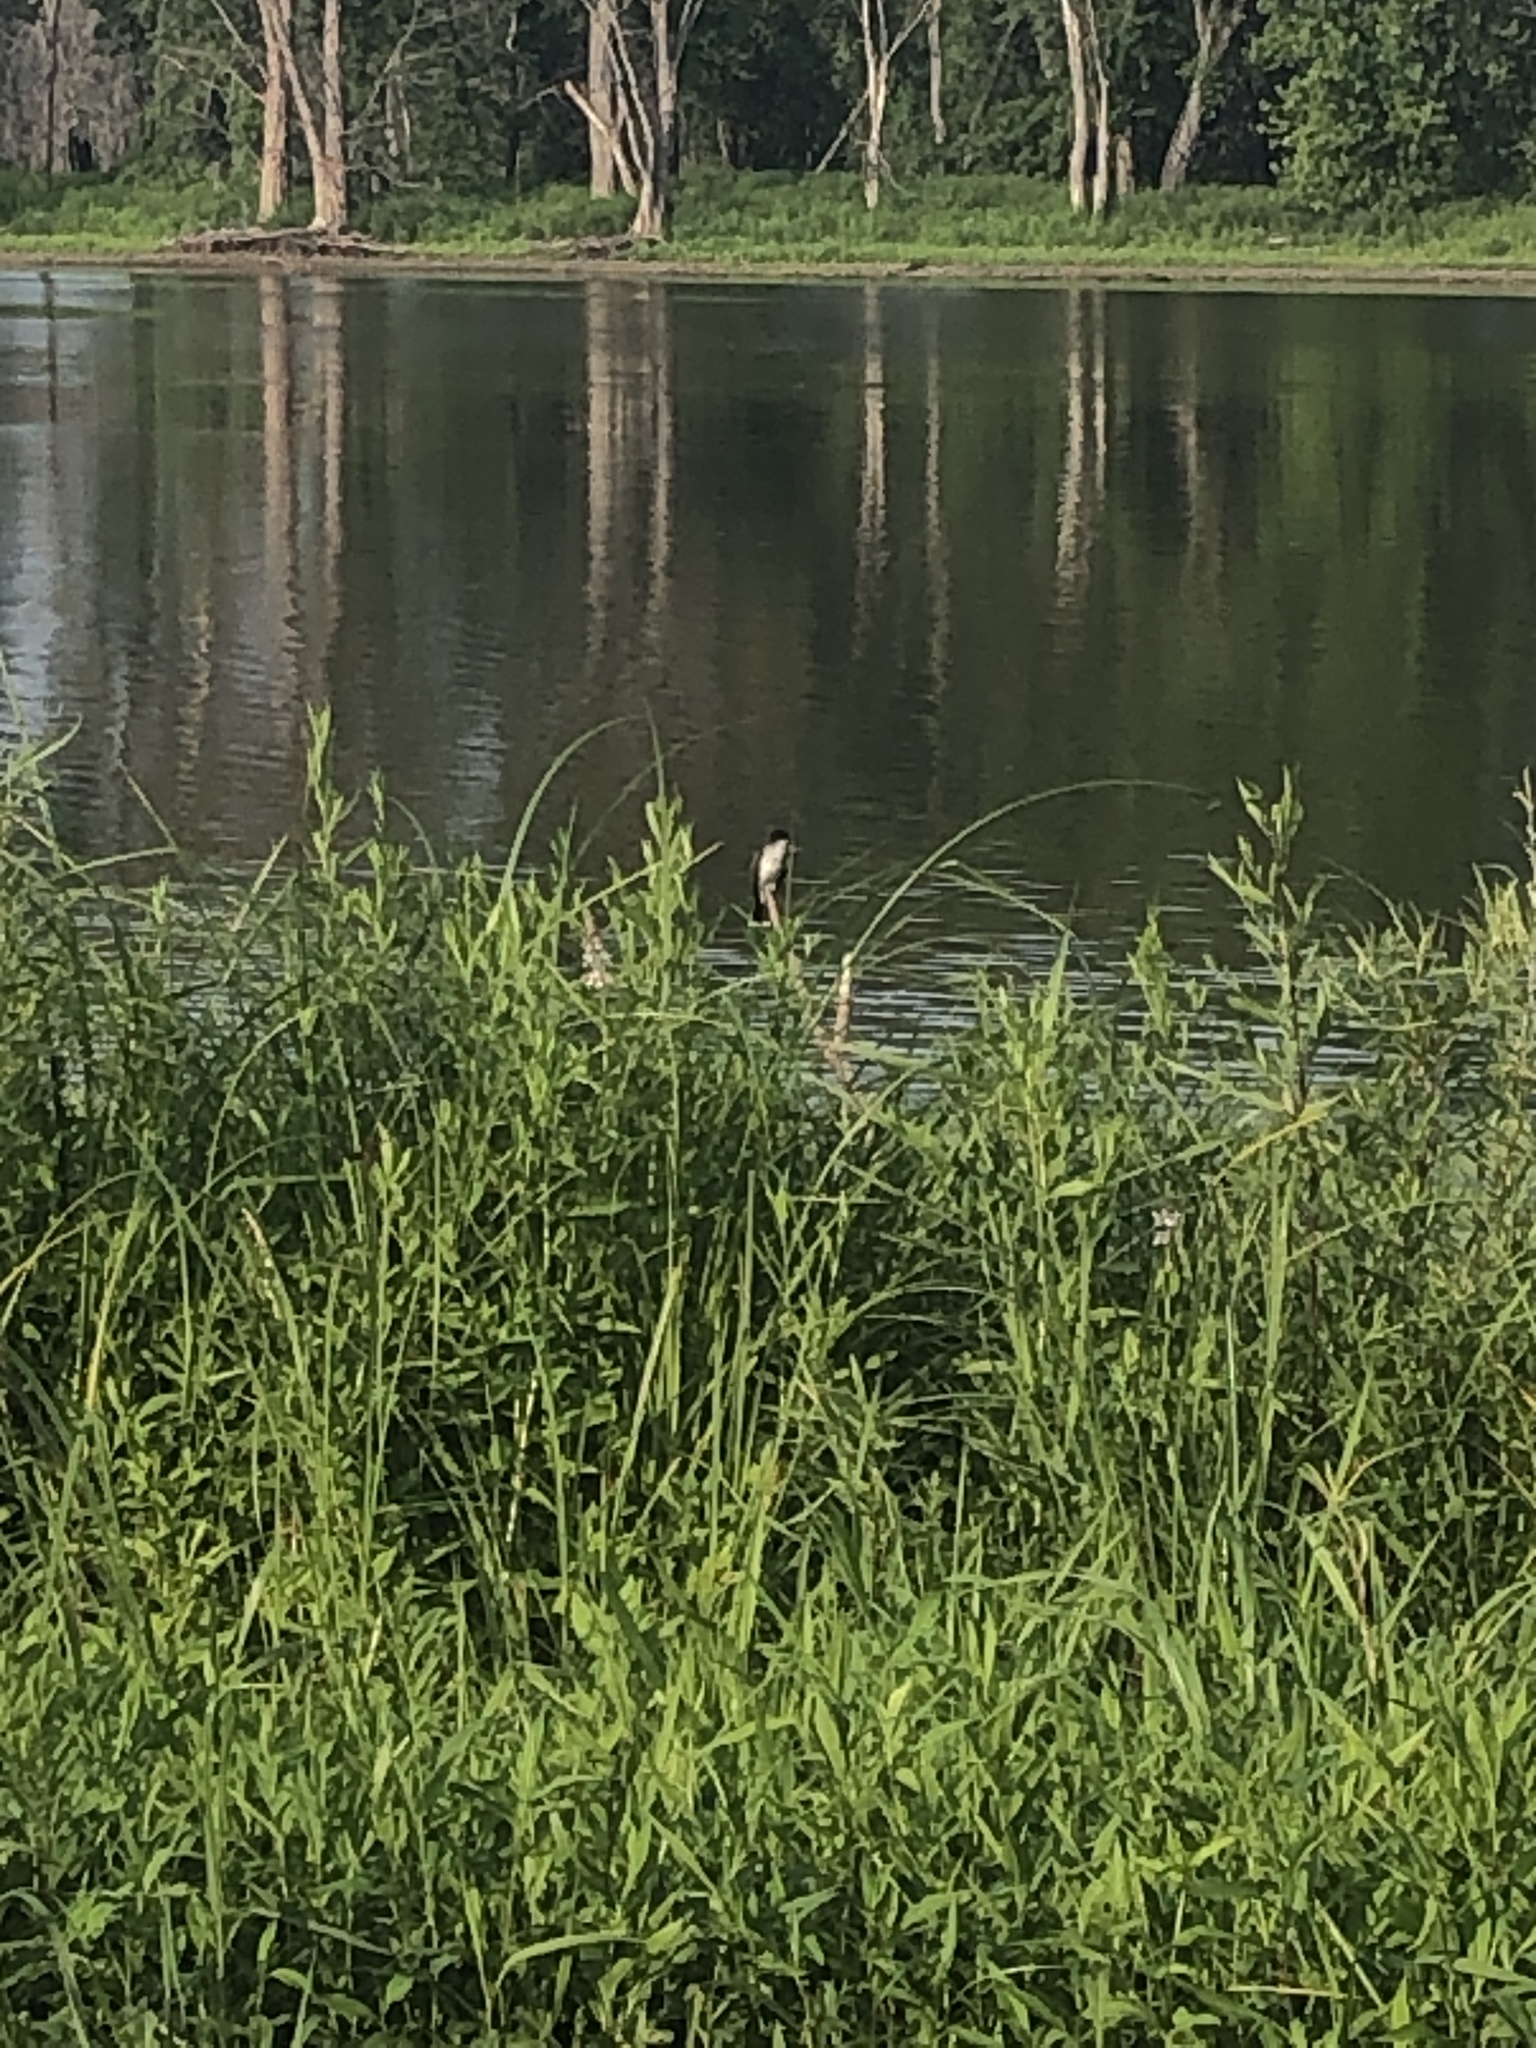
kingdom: Animalia
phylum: Chordata
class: Aves
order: Passeriformes
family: Tyrannidae
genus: Tyrannus
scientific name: Tyrannus tyrannus
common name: Eastern kingbird
